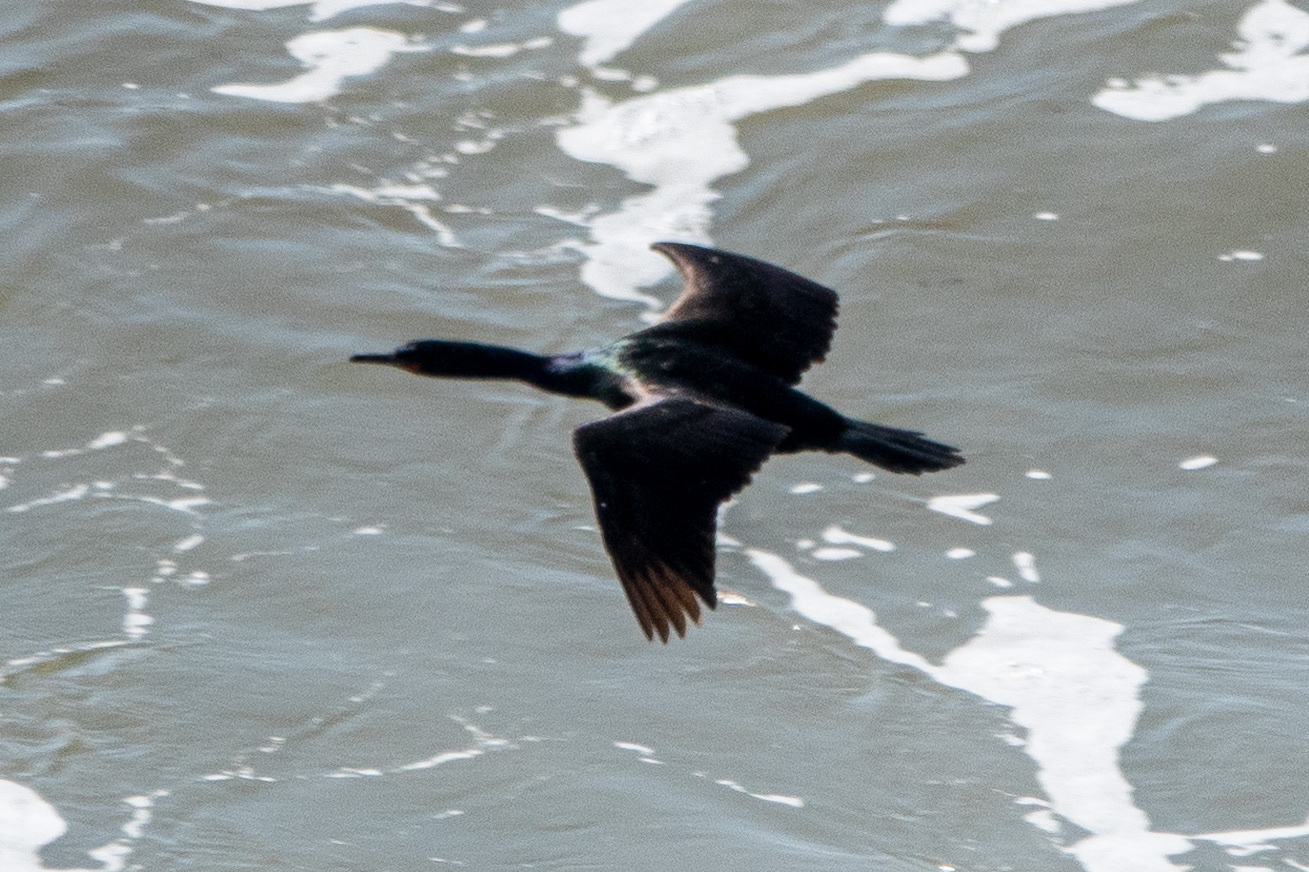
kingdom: Animalia
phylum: Chordata
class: Aves
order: Suliformes
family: Phalacrocoracidae
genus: Phalacrocorax
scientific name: Phalacrocorax pelagicus
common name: Pelagic cormorant
